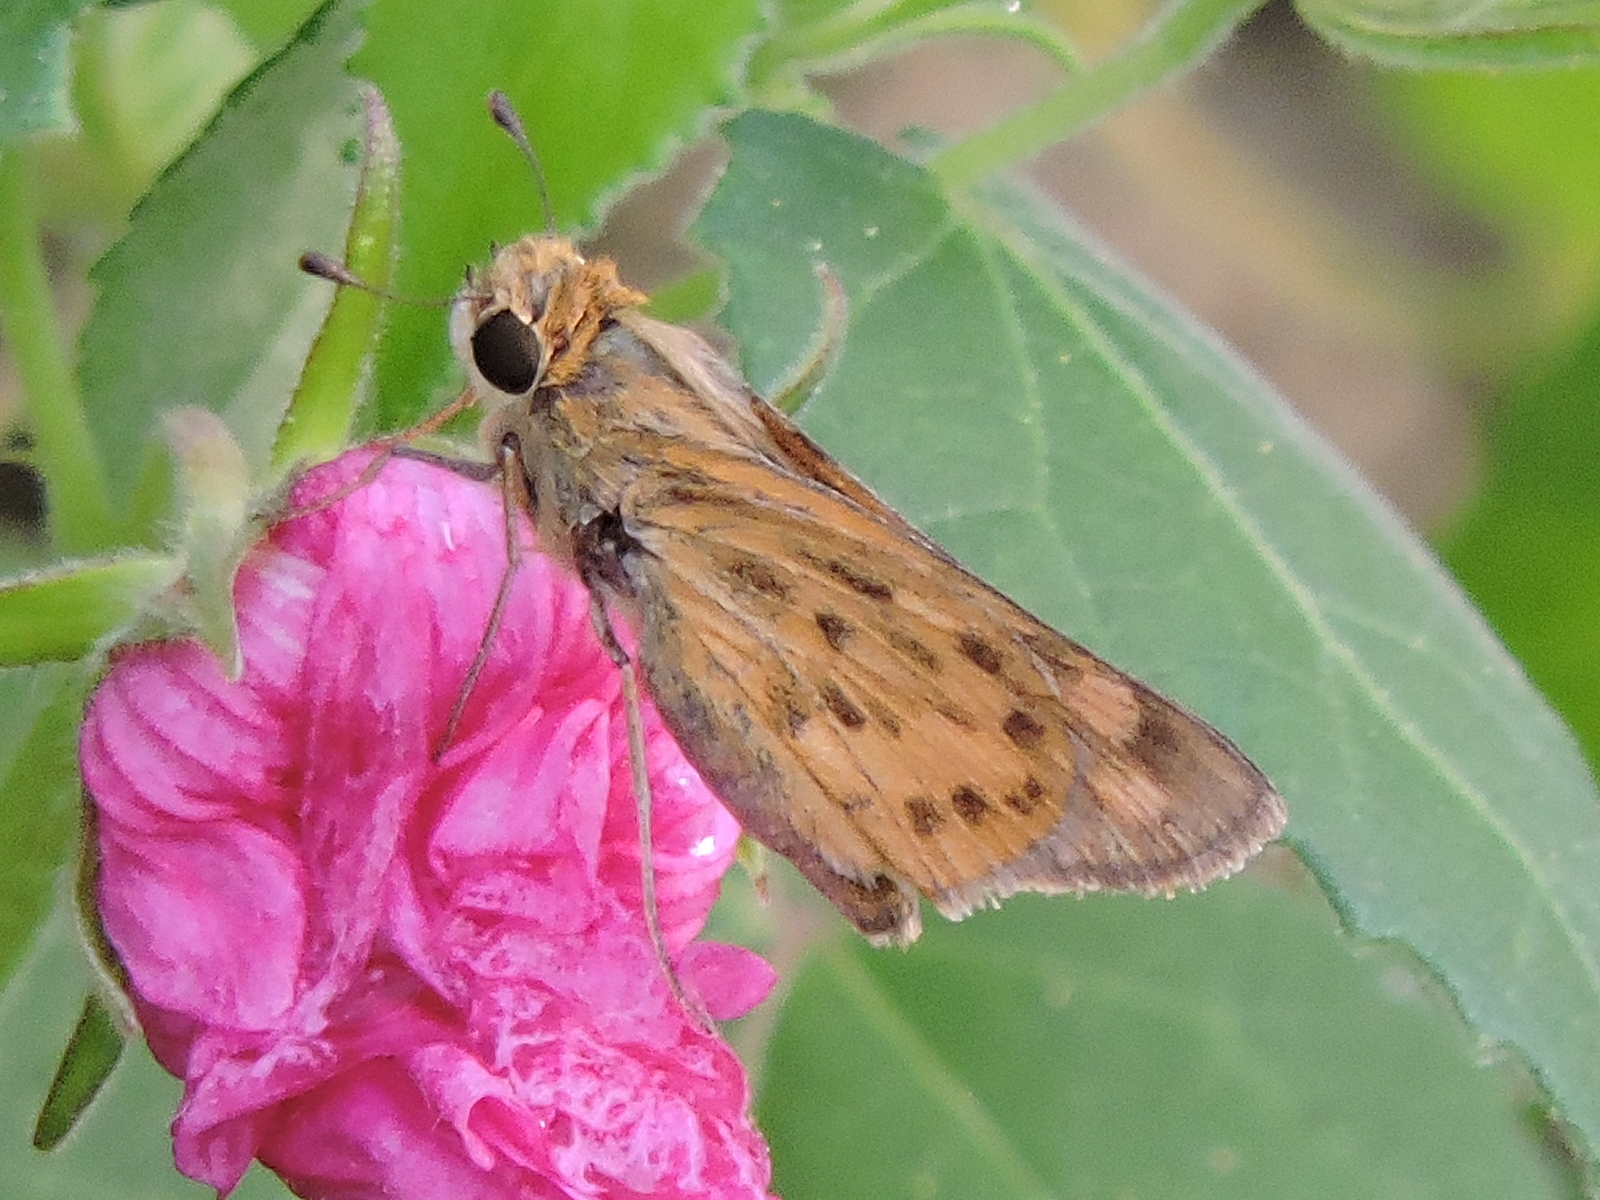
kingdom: Animalia
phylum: Arthropoda
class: Insecta
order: Lepidoptera
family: Hesperiidae
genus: Hylephila
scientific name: Hylephila phyleus
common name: Fiery skipper
